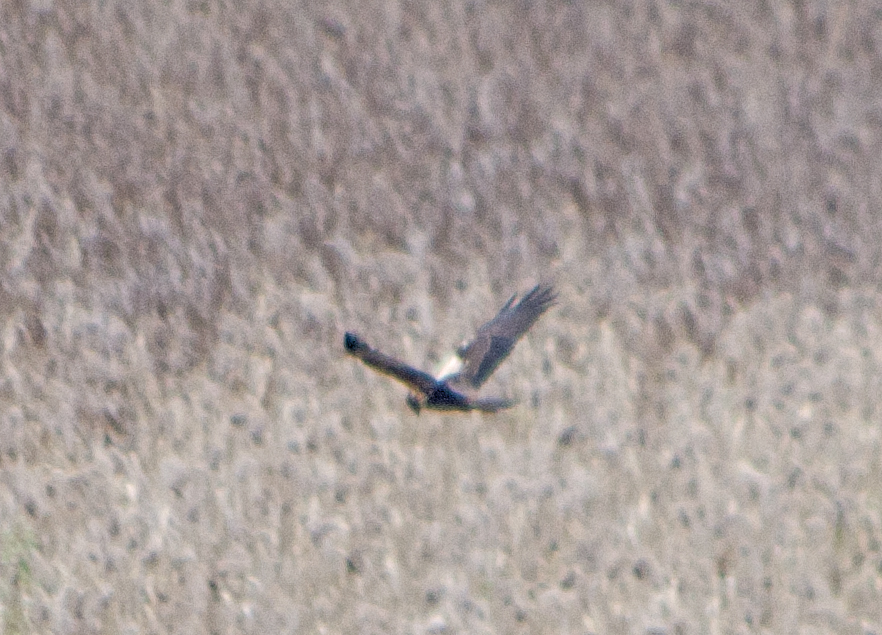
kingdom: Animalia
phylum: Chordata
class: Aves
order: Accipitriformes
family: Accipitridae
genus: Circus
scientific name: Circus aeruginosus
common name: Western marsh harrier
